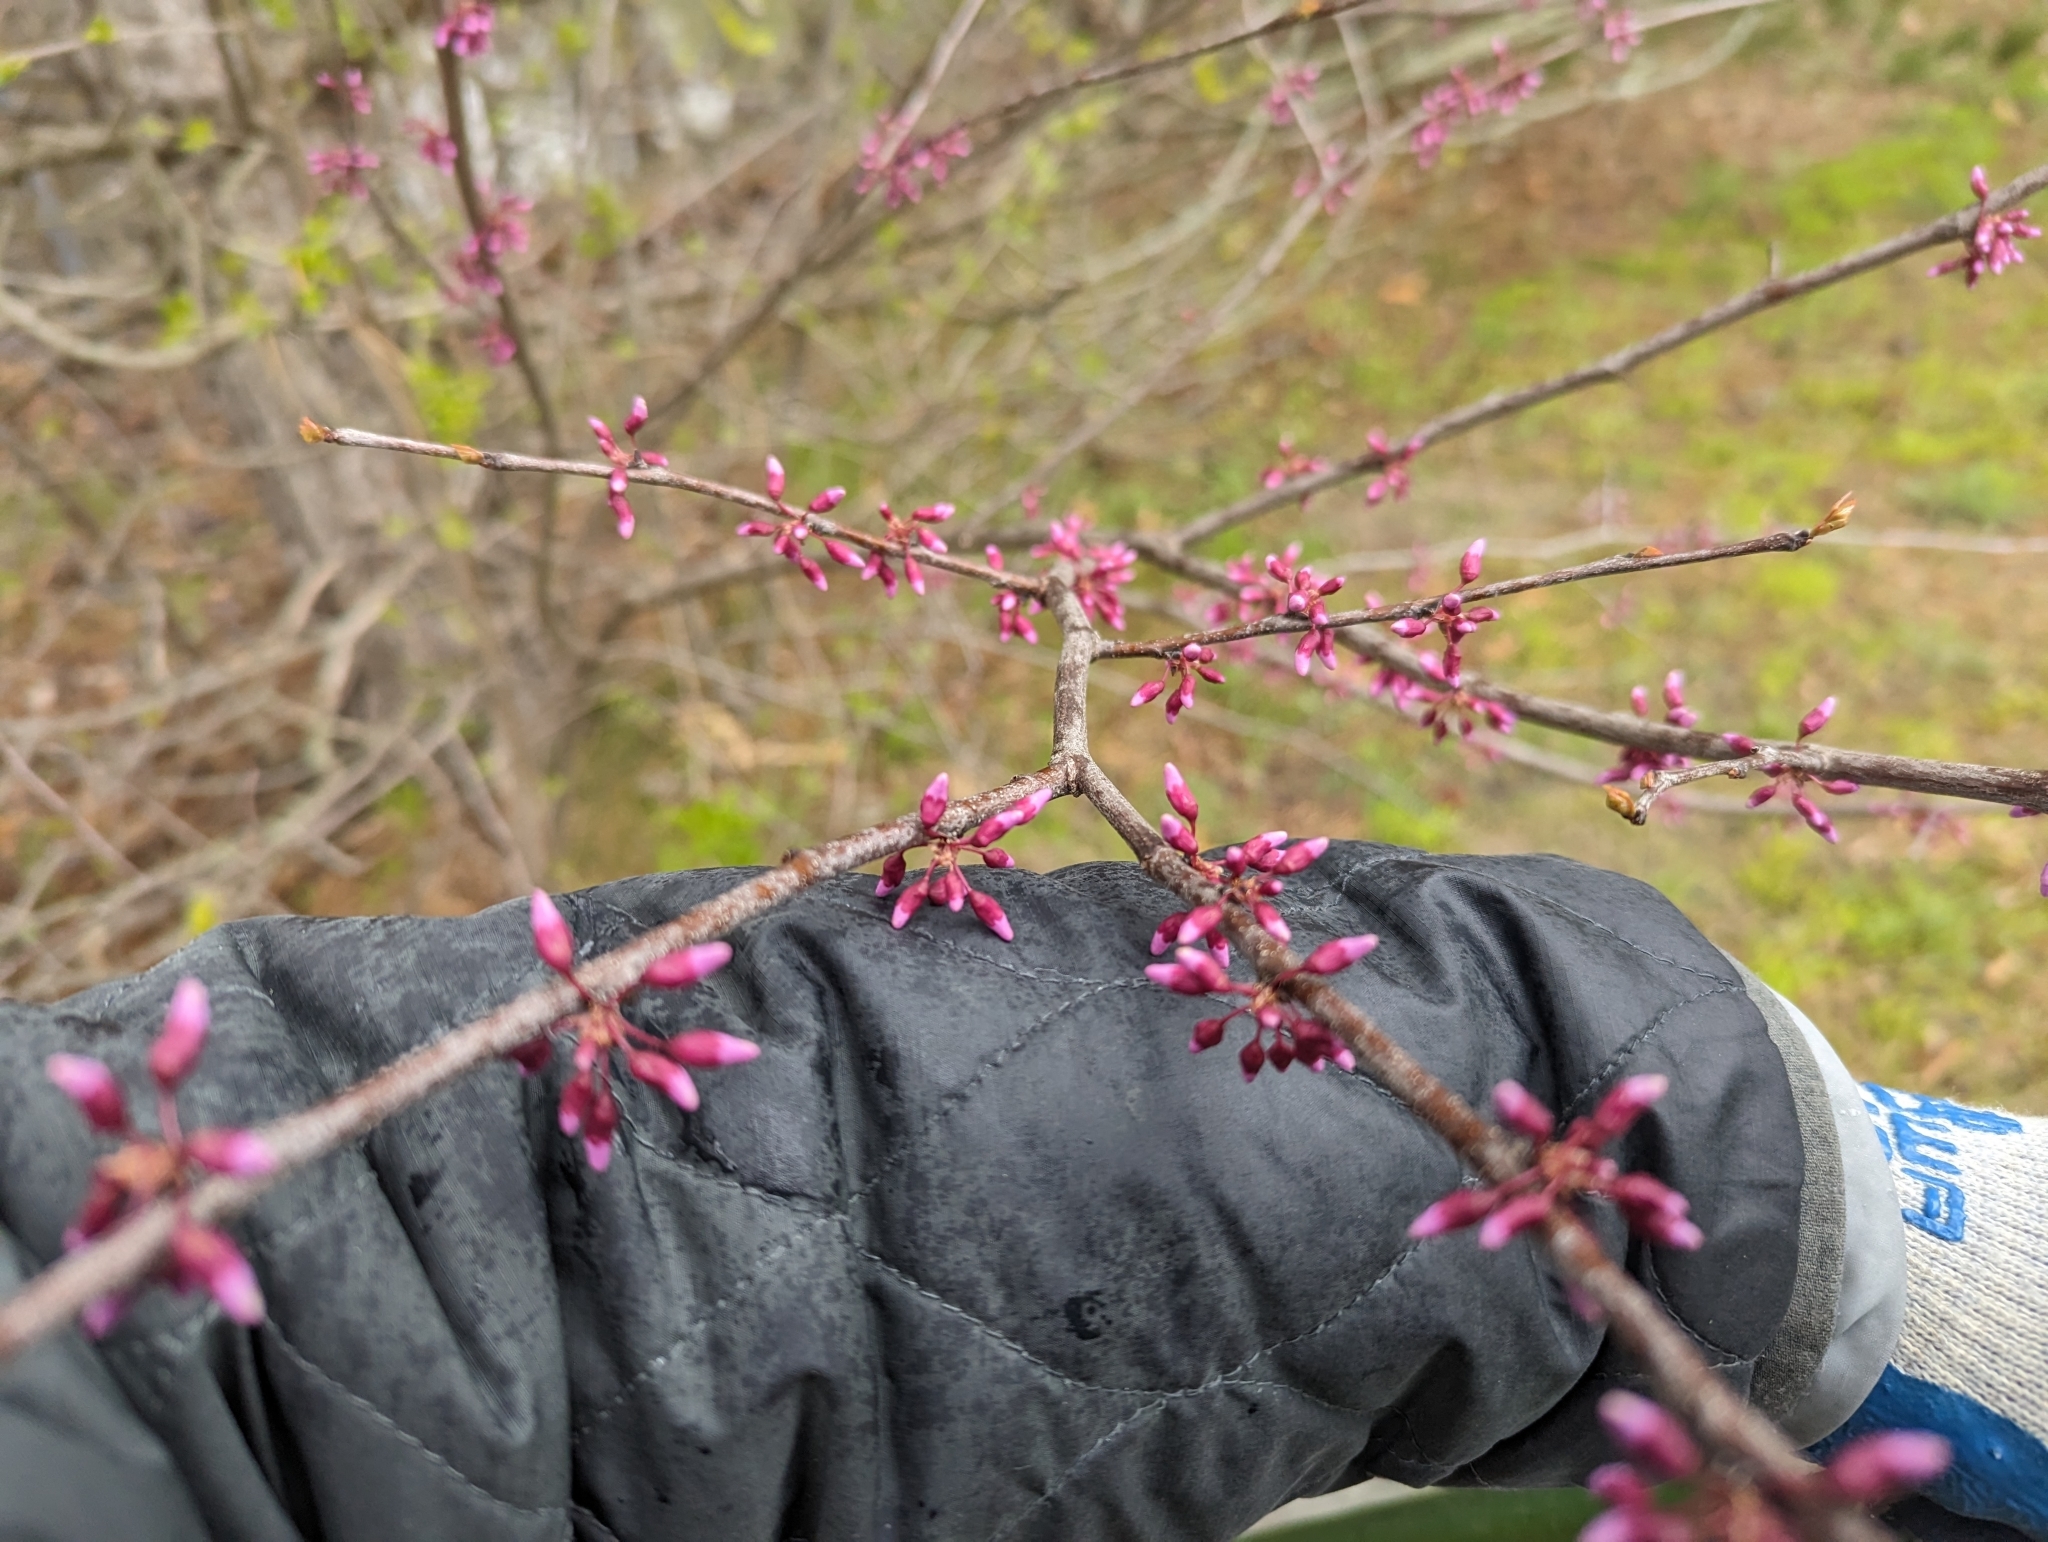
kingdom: Plantae
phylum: Tracheophyta
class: Magnoliopsida
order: Fabales
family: Fabaceae
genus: Cercis
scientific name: Cercis canadensis
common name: Eastern redbud
